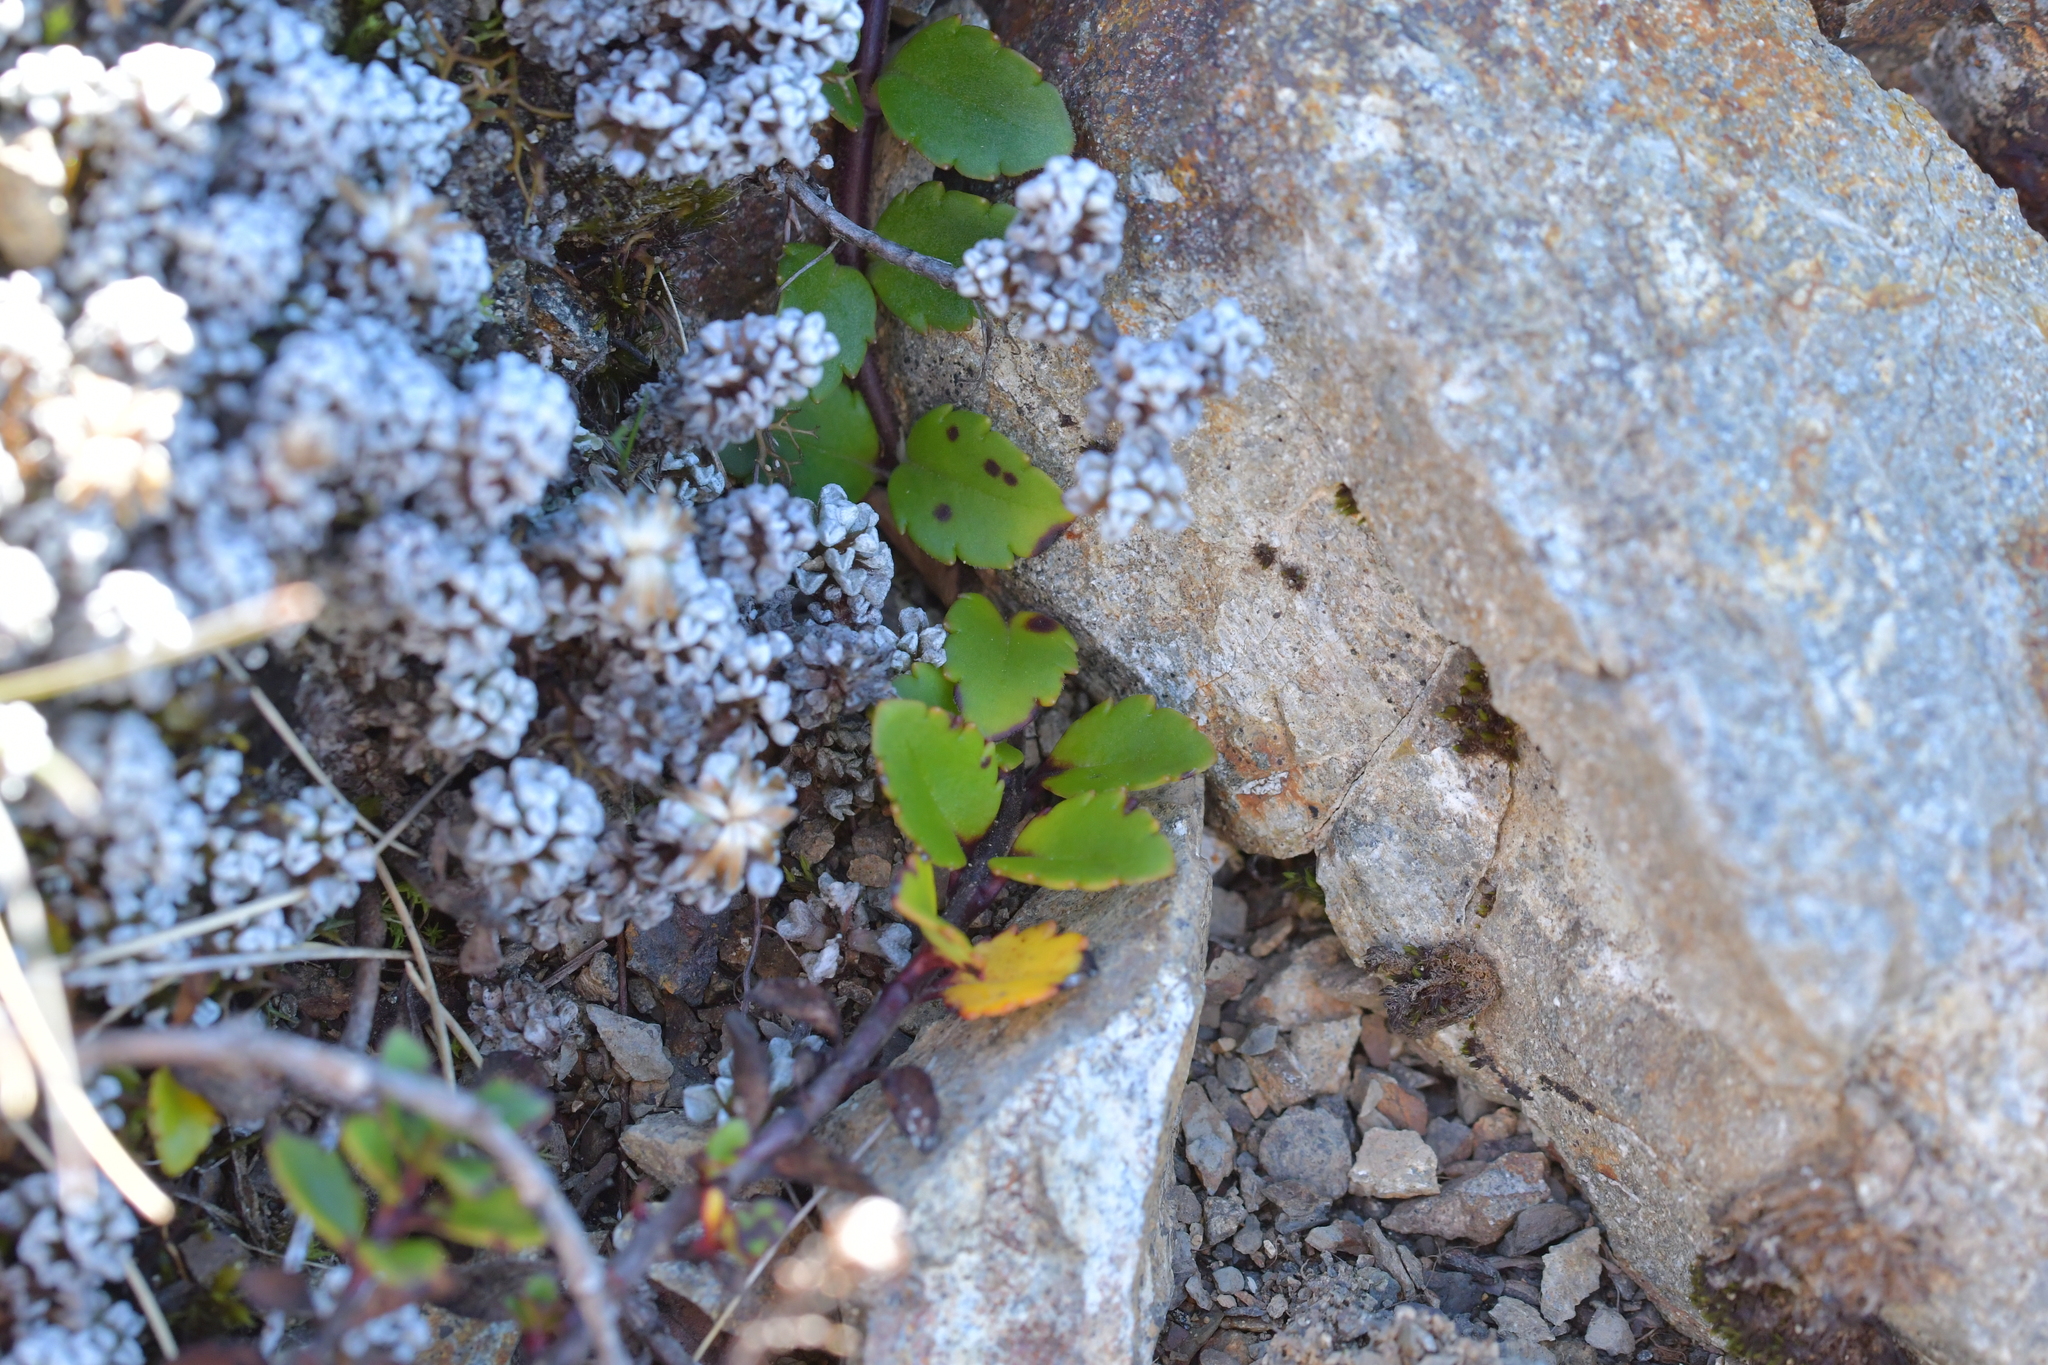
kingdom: Plantae
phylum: Tracheophyta
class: Magnoliopsida
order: Lamiales
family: Plantaginaceae
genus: Veronica
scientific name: Veronica hookeriana
